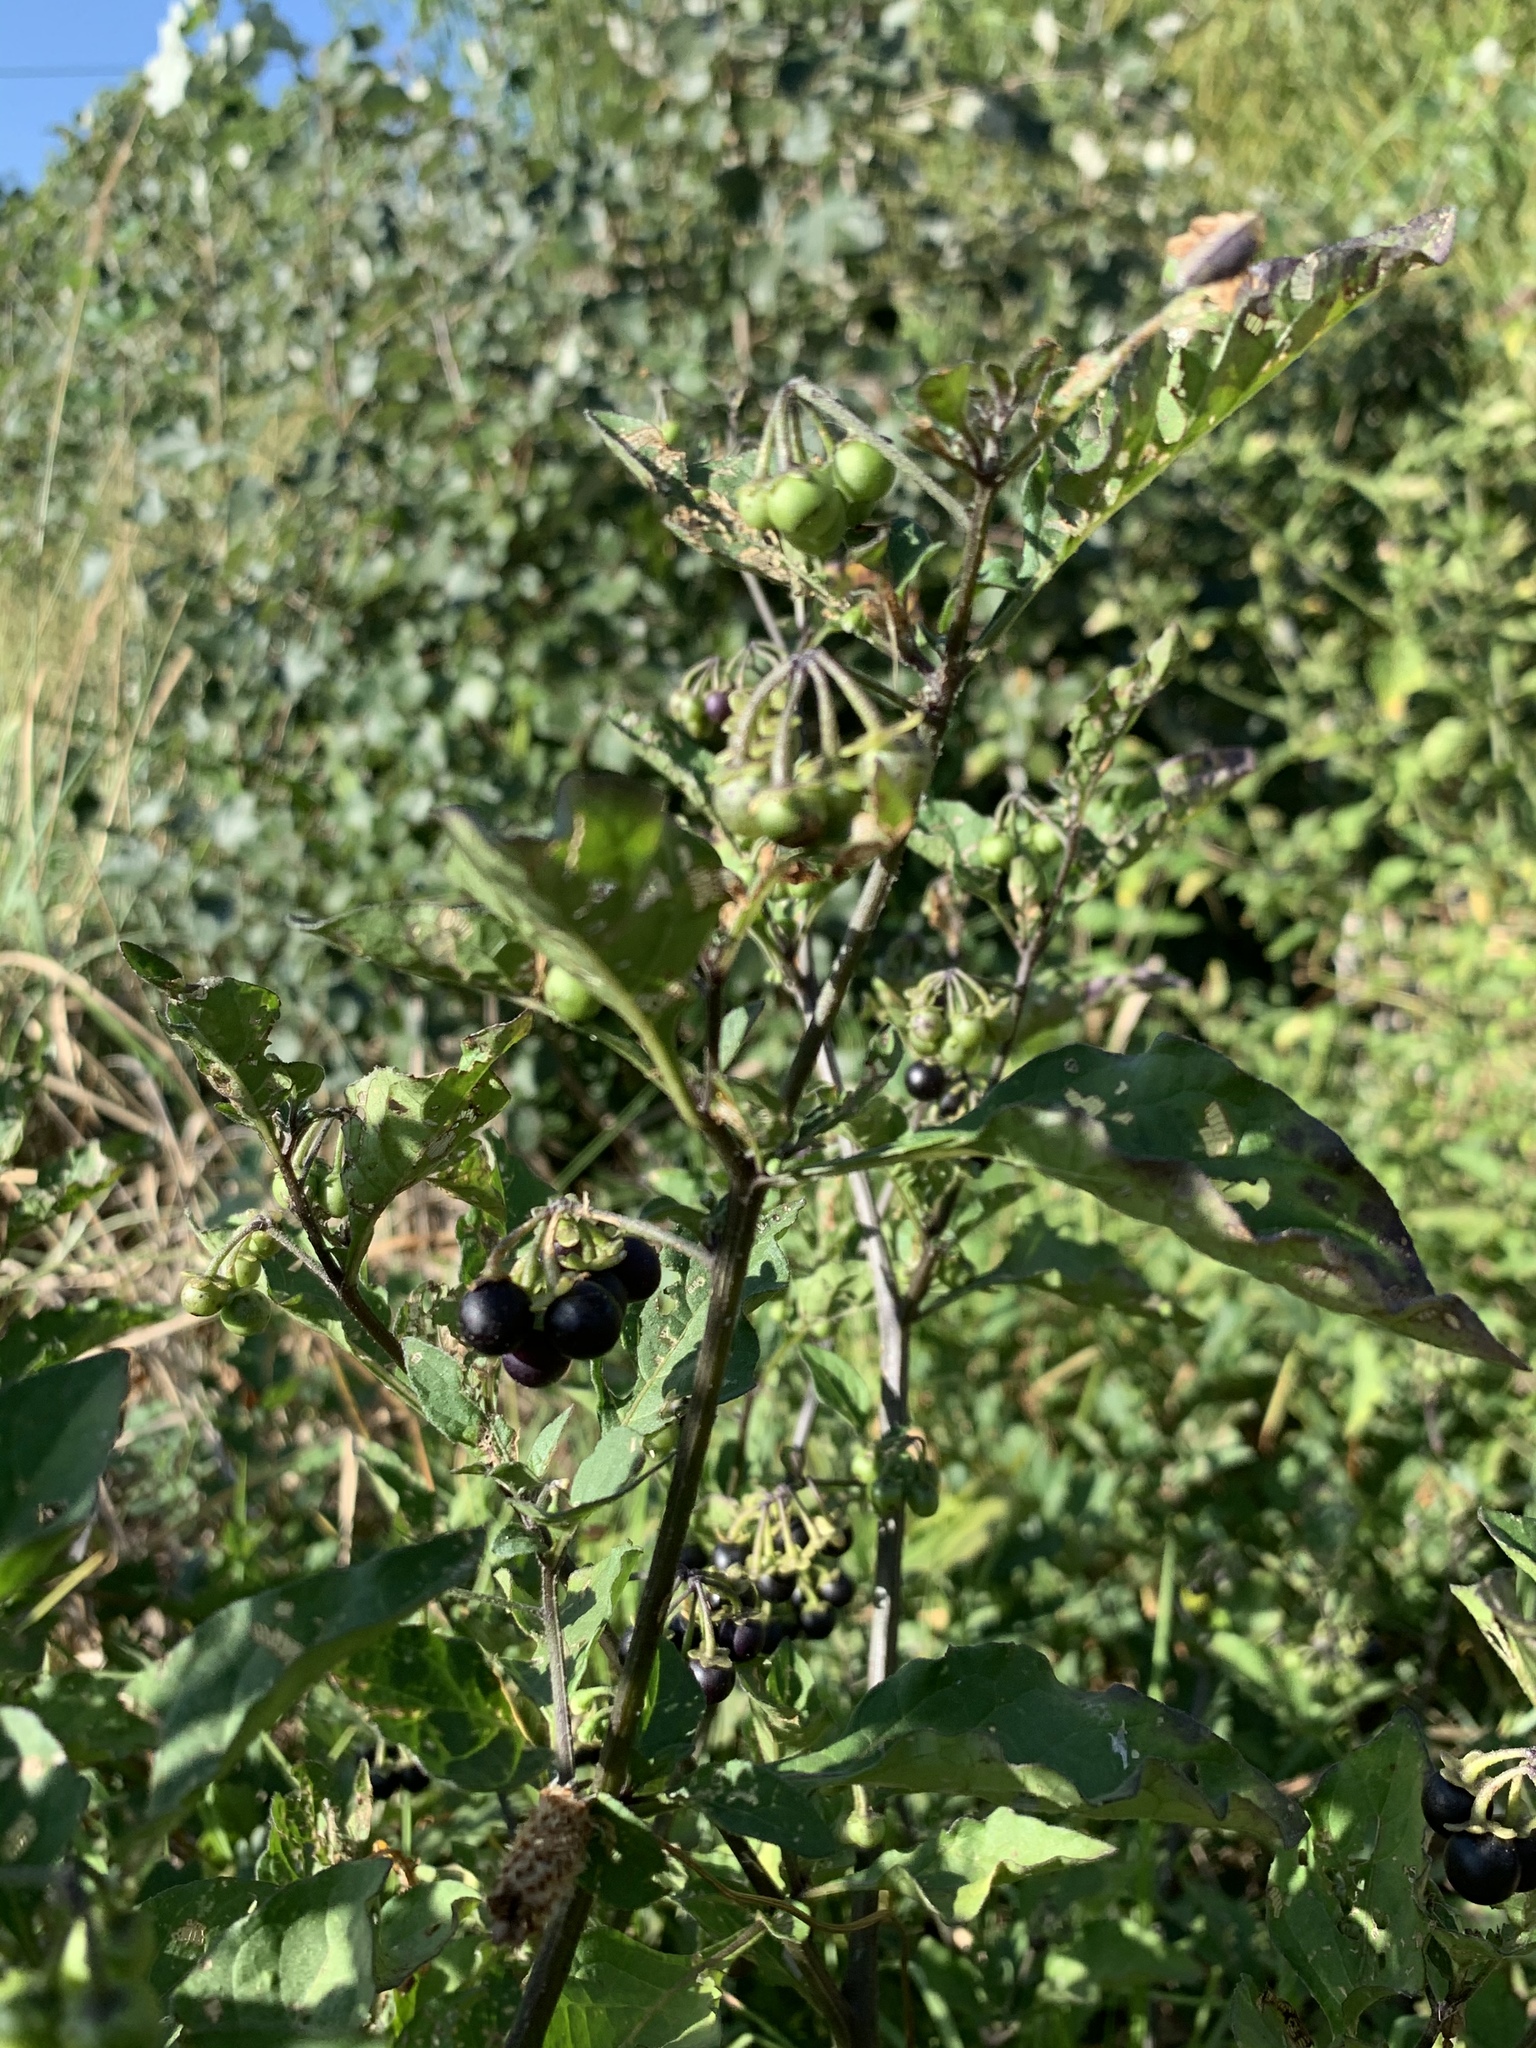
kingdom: Plantae
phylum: Tracheophyta
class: Magnoliopsida
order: Solanales
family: Solanaceae
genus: Solanum
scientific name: Solanum nigrum
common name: Black nightshade
